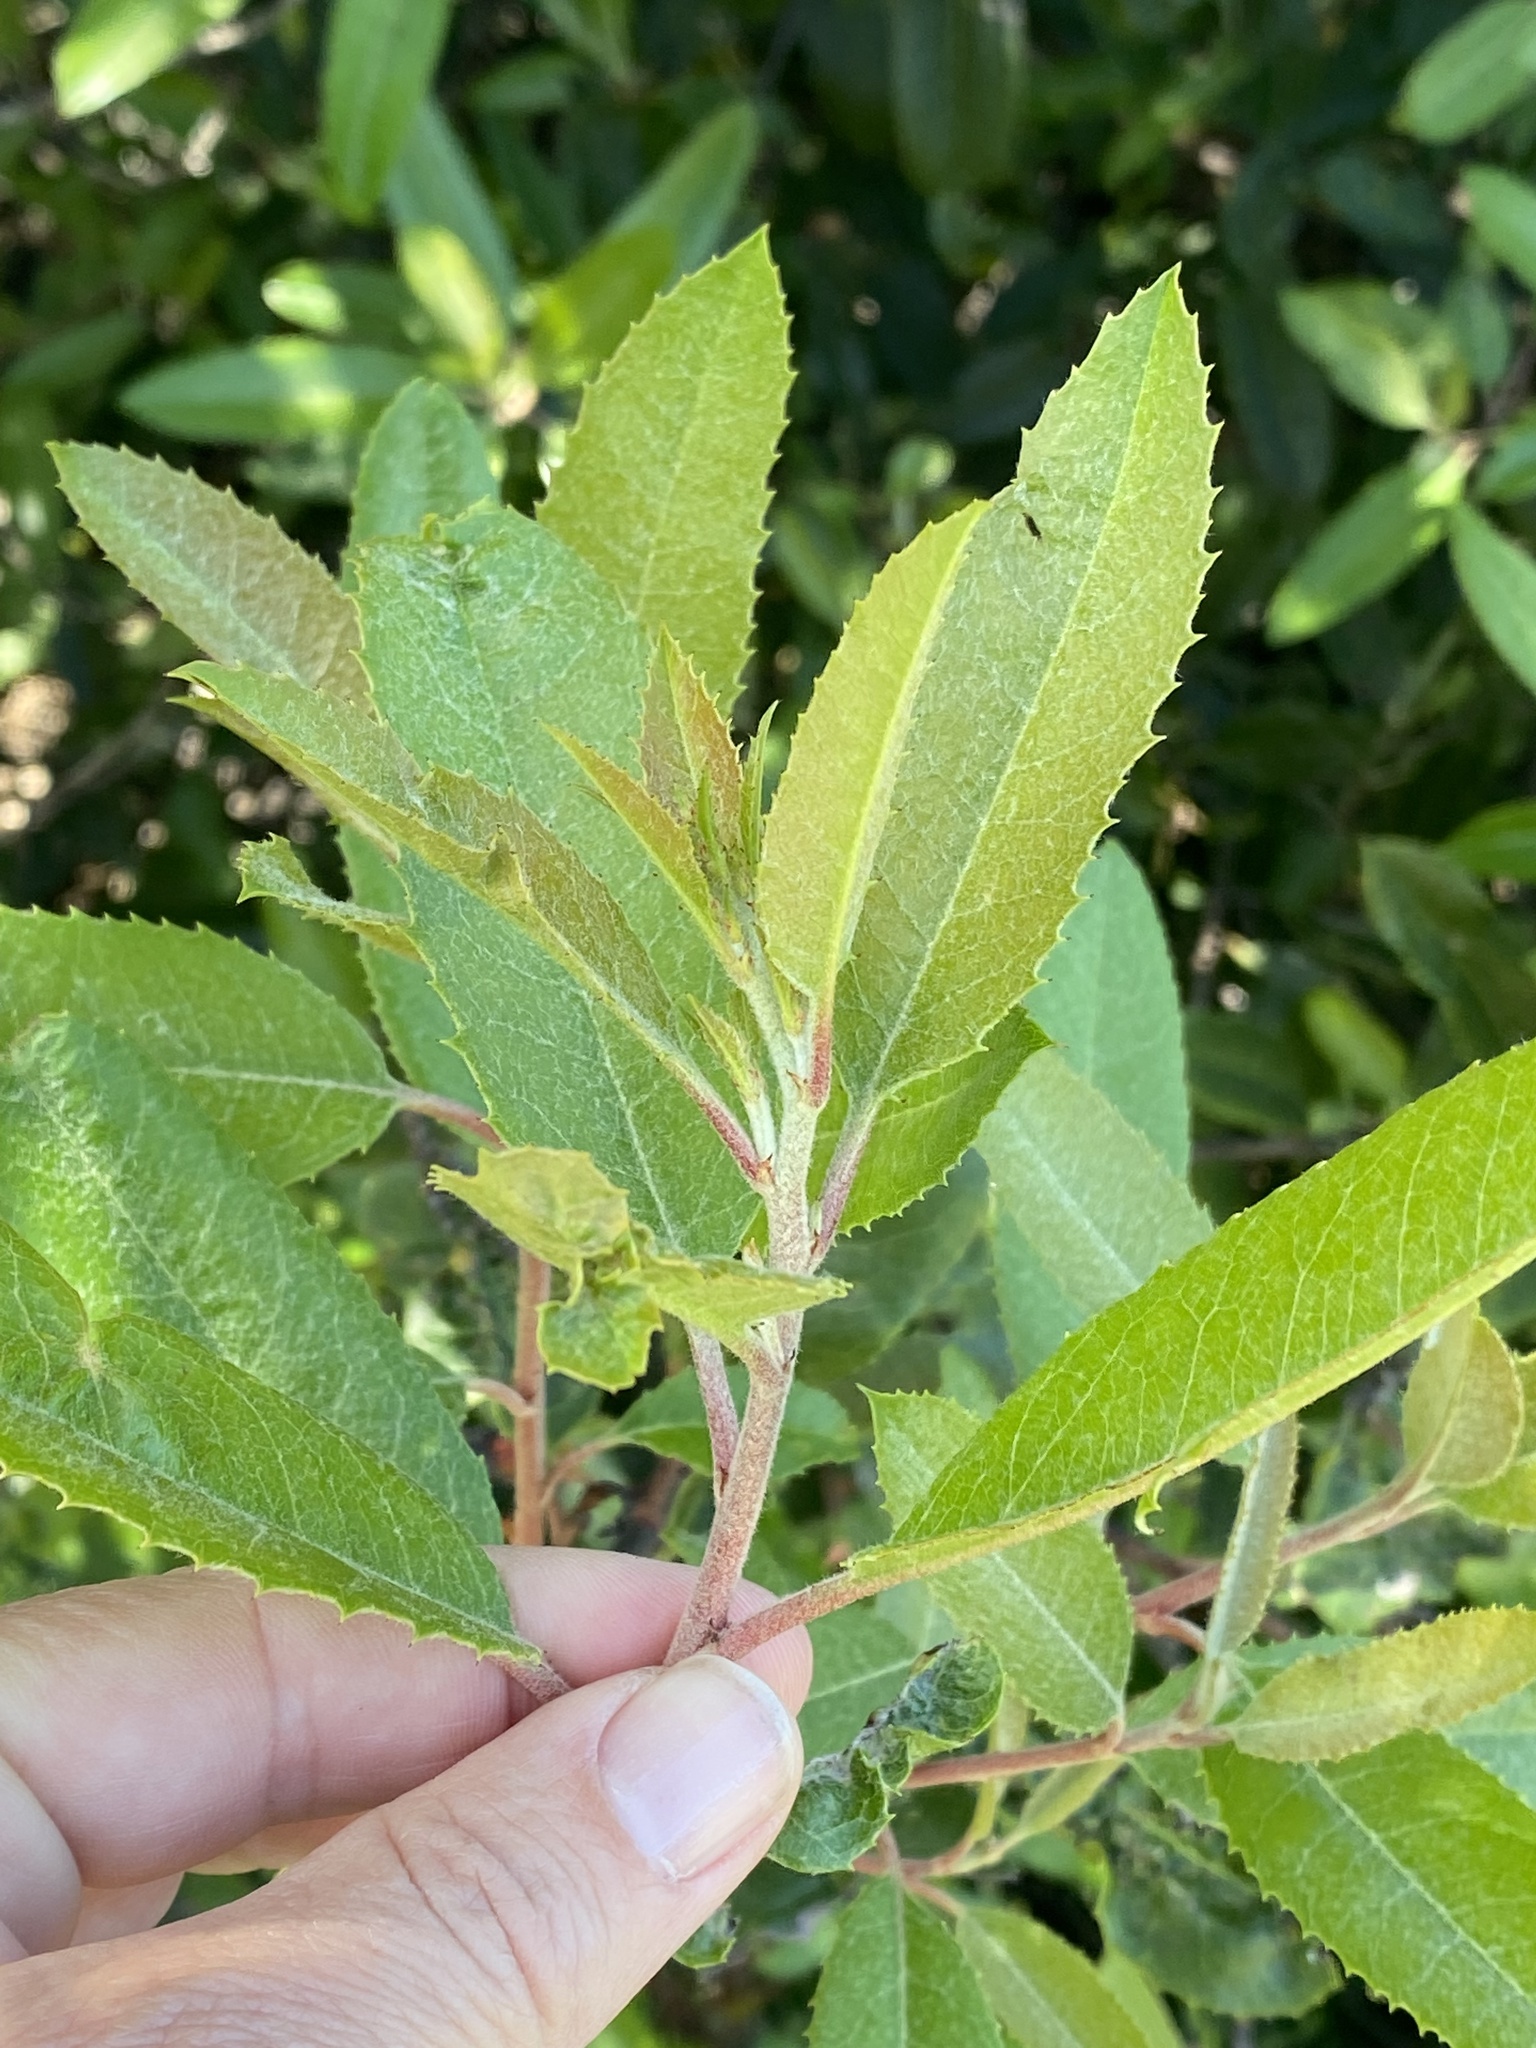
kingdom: Plantae
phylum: Tracheophyta
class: Magnoliopsida
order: Rosales
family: Rosaceae
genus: Heteromeles
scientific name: Heteromeles arbutifolia
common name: California-holly
